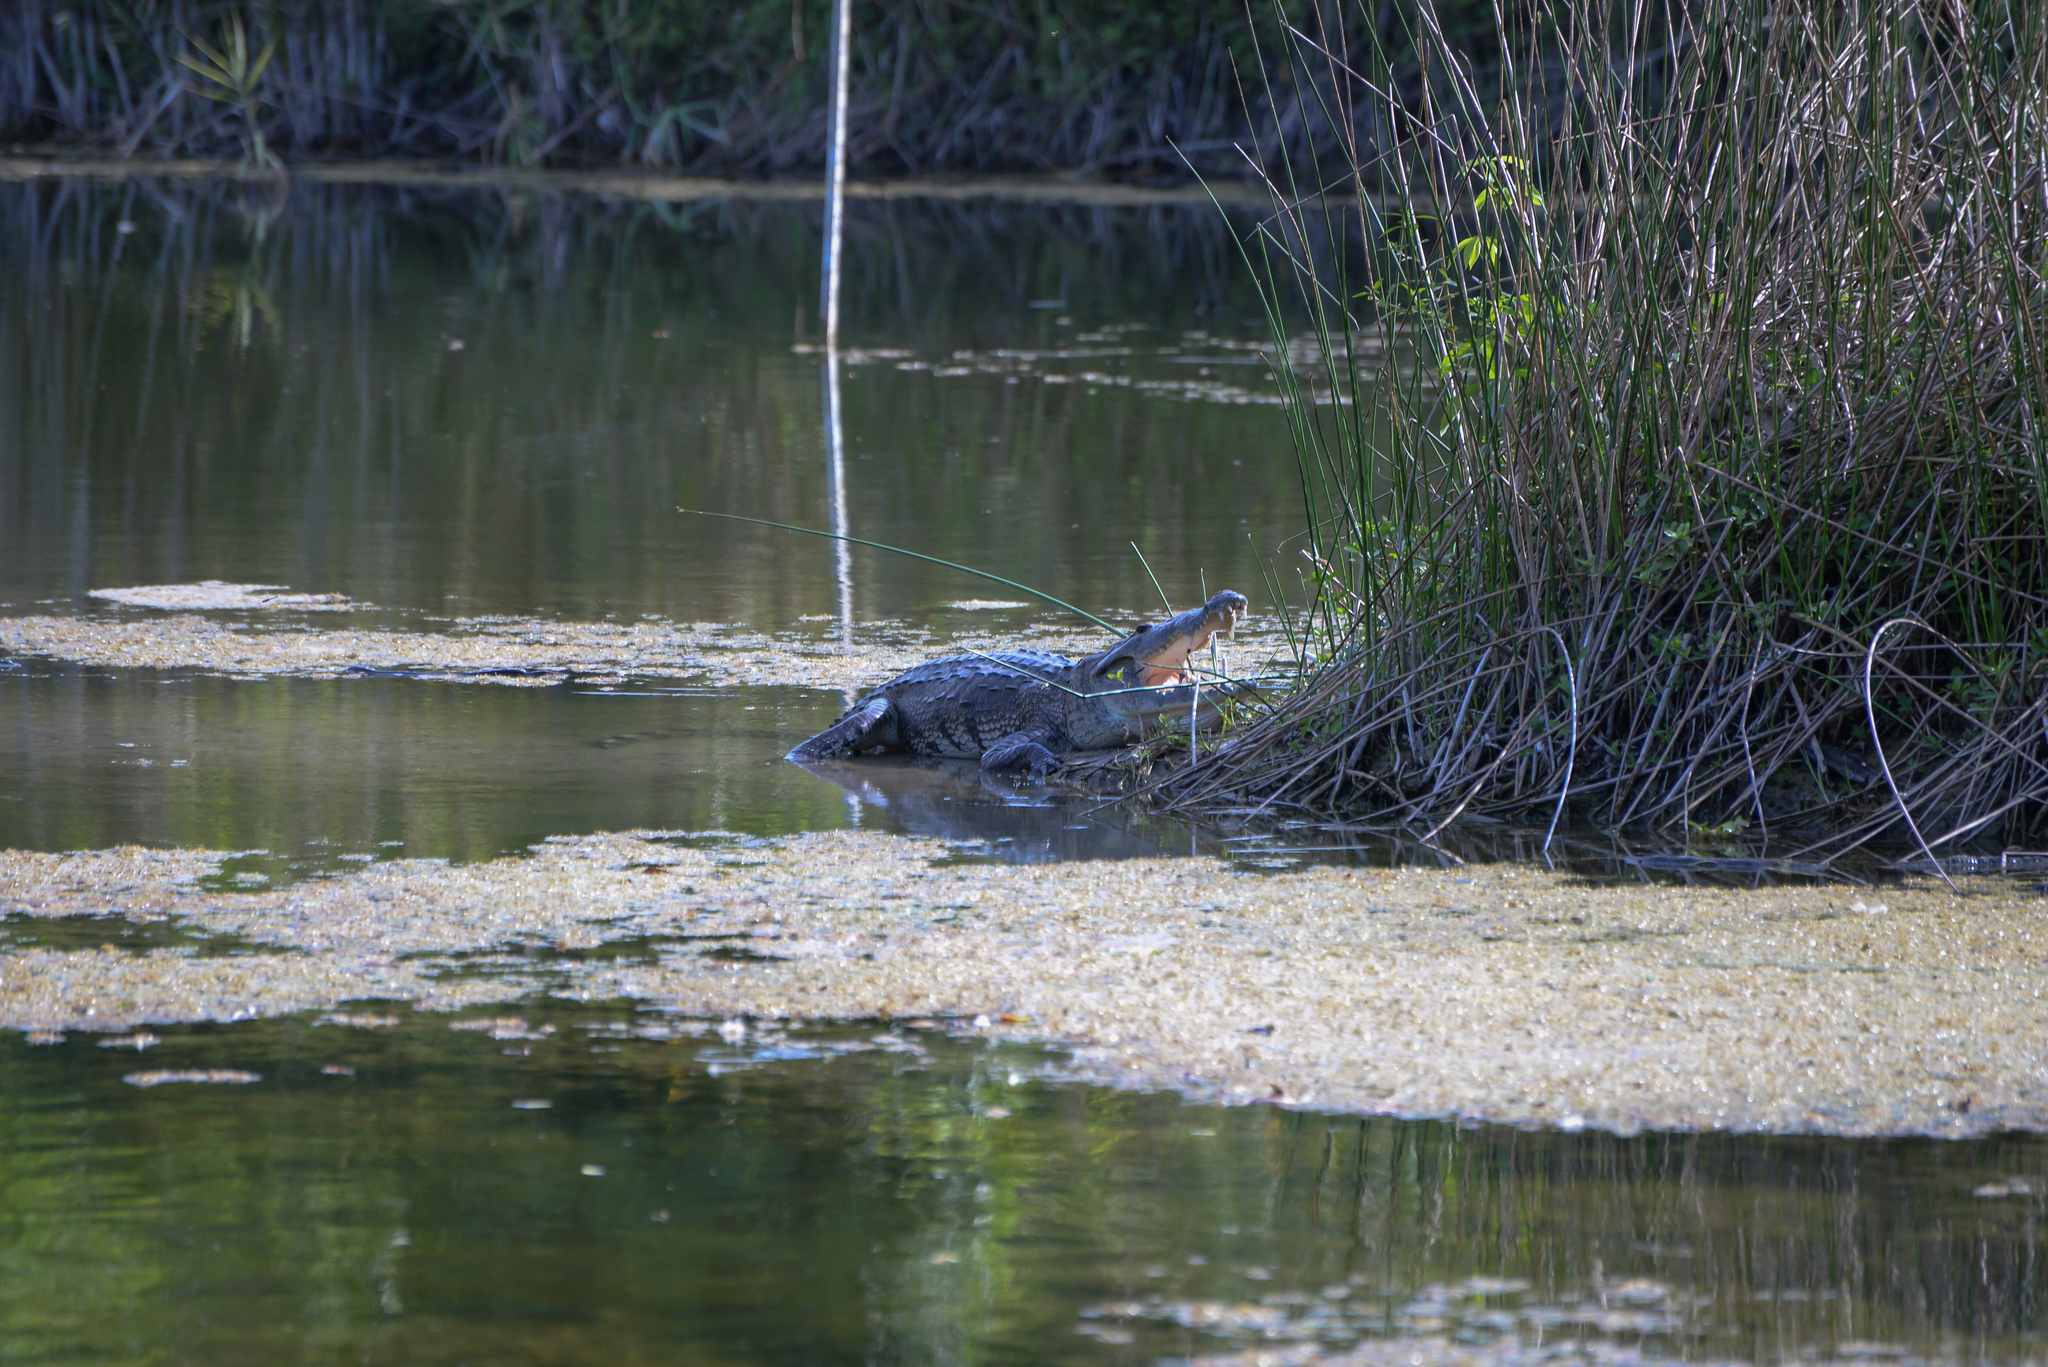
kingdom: Animalia
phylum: Chordata
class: Crocodylia
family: Crocodylidae
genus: Crocodylus
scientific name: Crocodylus moreletii
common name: Morelet's crocodile
